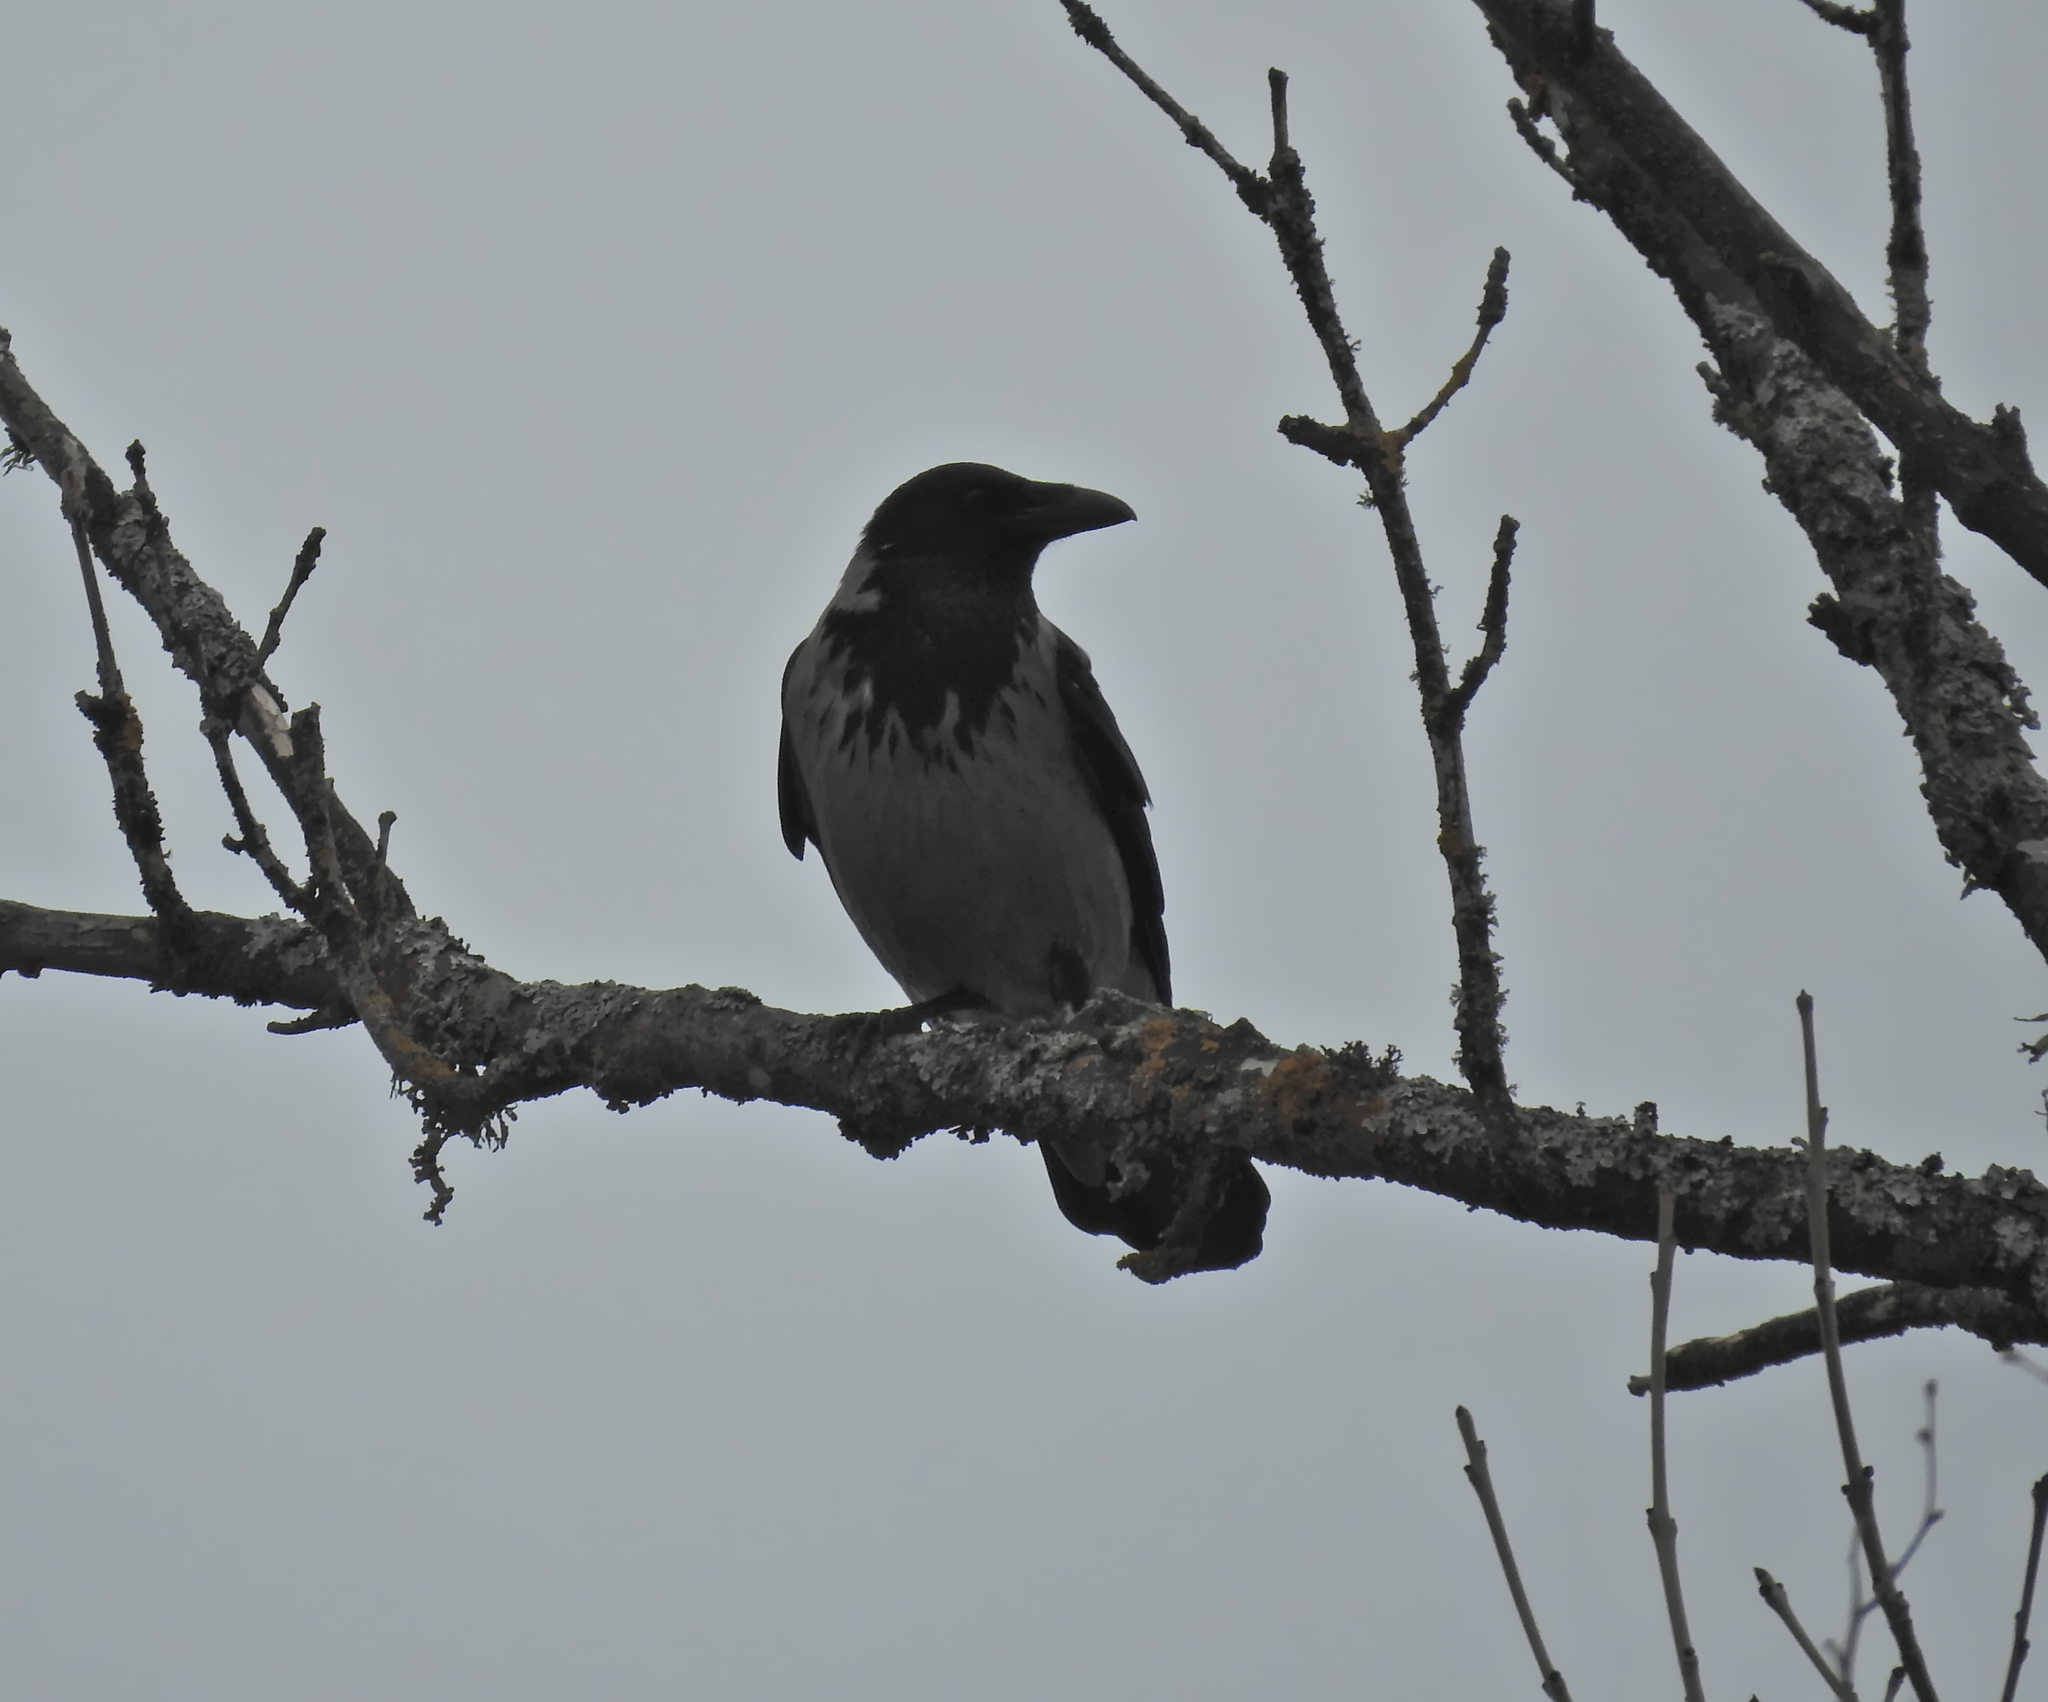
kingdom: Animalia
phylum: Chordata
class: Aves
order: Passeriformes
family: Corvidae
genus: Corvus
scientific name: Corvus cornix
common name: Hooded crow
